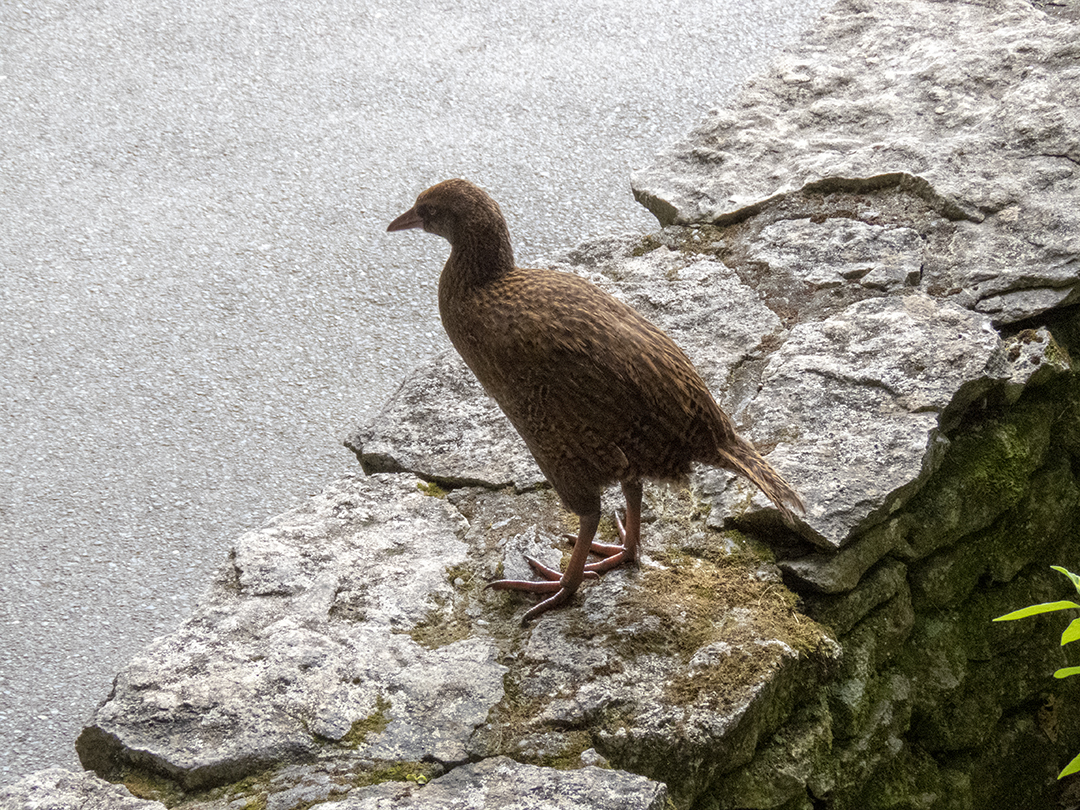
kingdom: Animalia
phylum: Chordata
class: Aves
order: Gruiformes
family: Rallidae
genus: Gallirallus
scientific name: Gallirallus australis
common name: Weka
